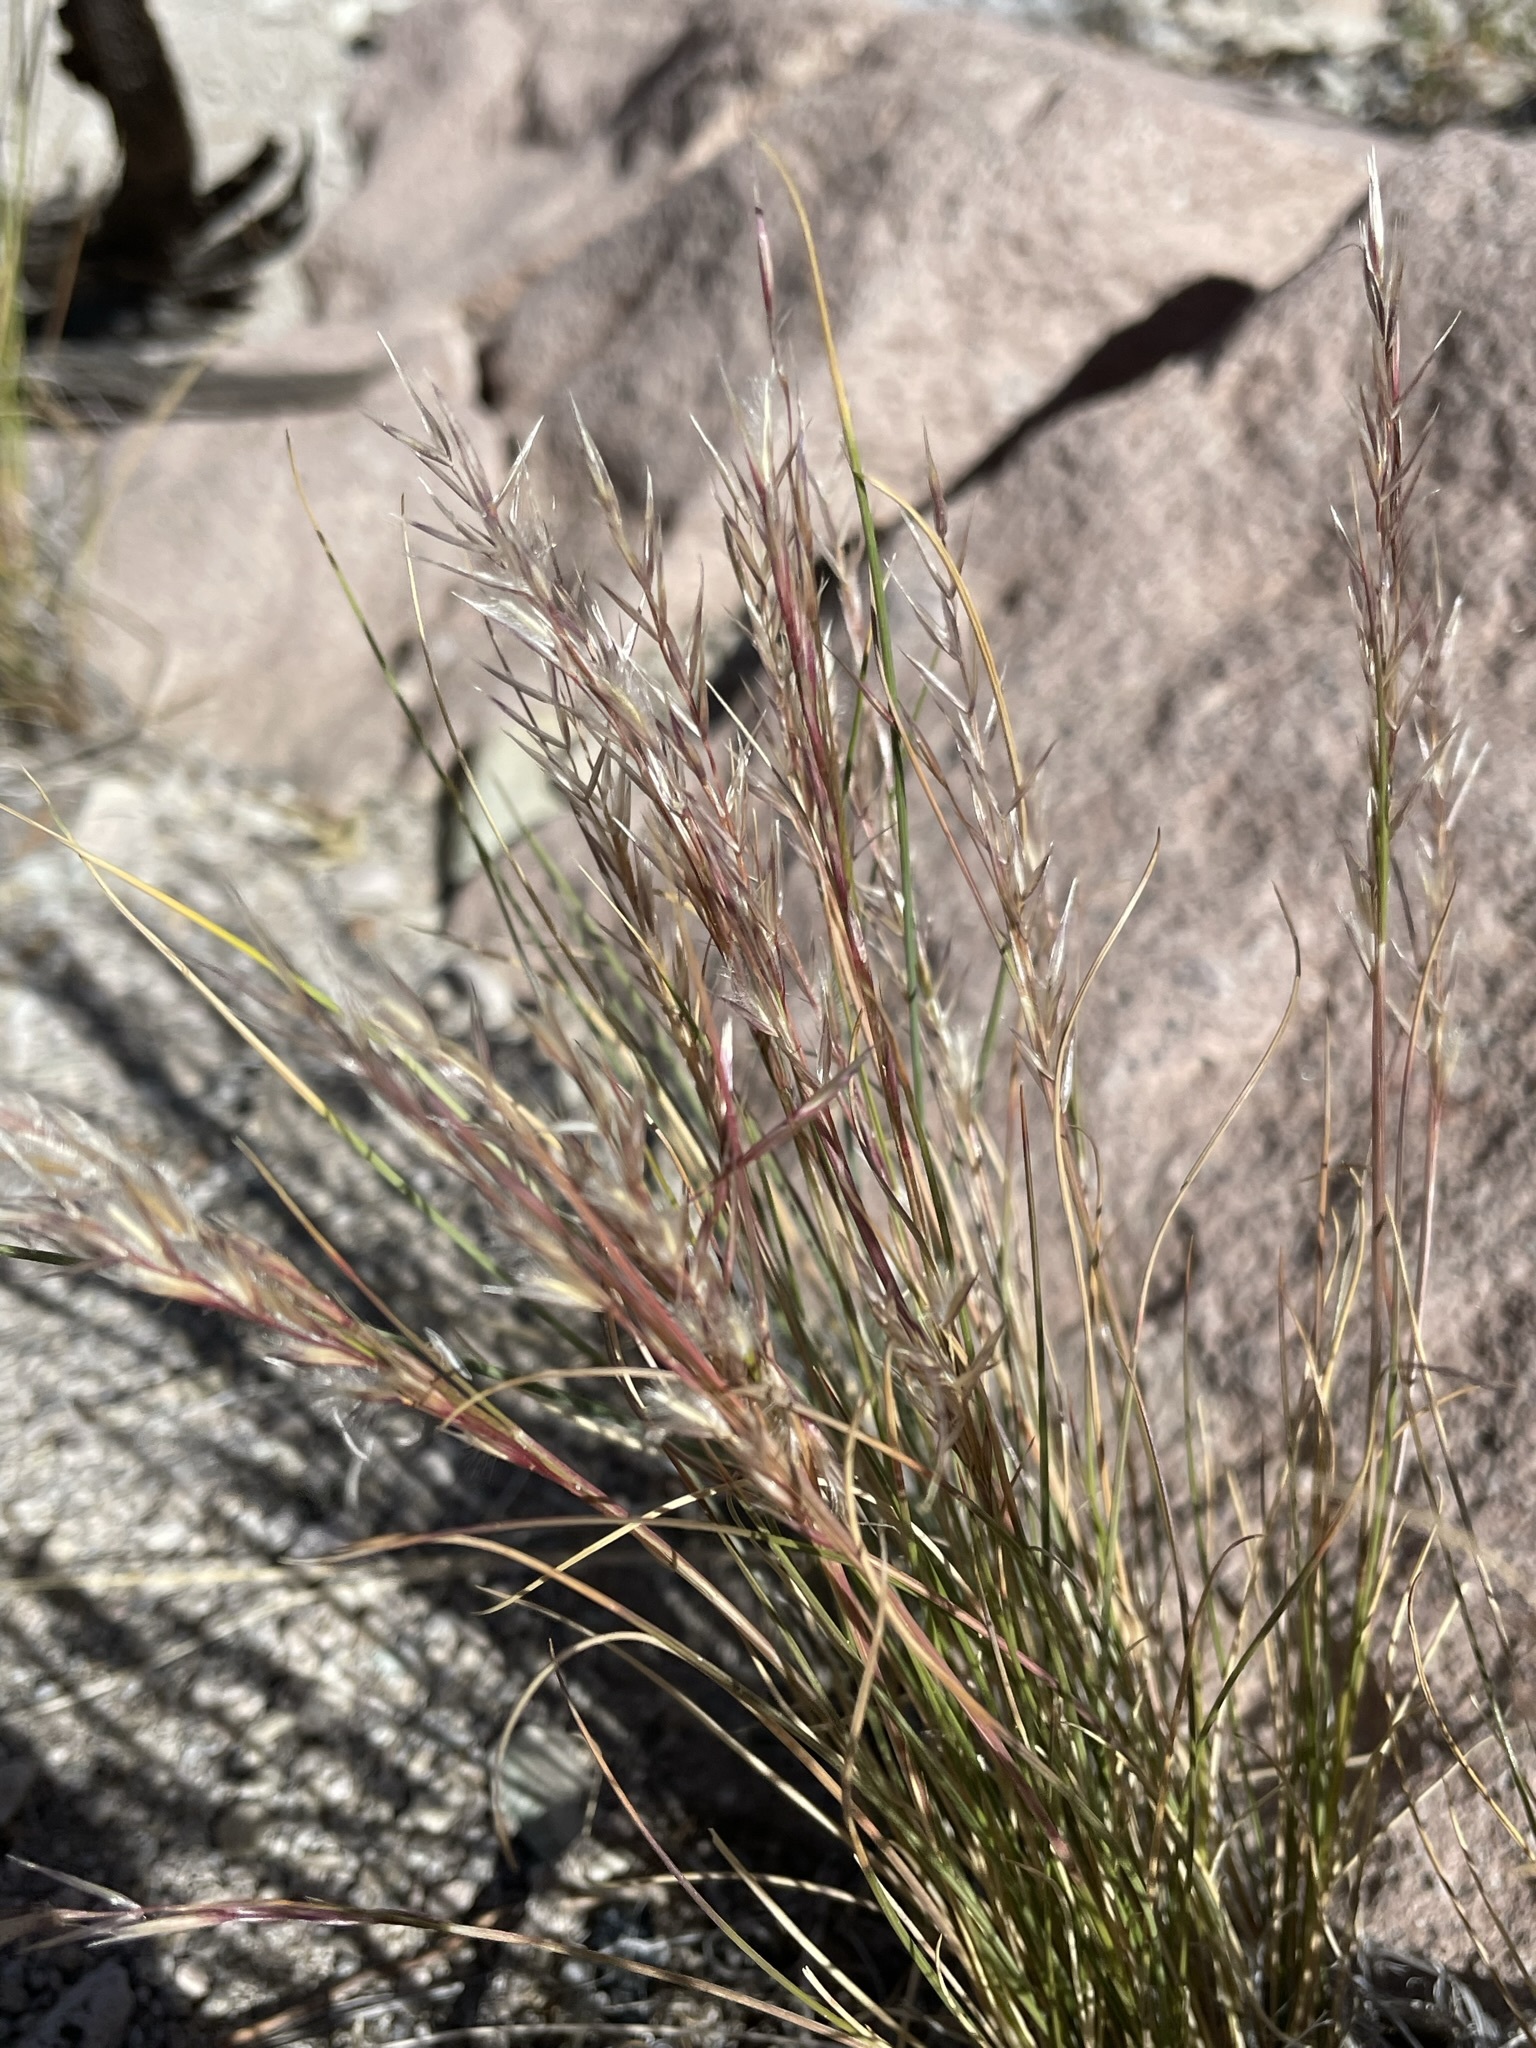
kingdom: Plantae
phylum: Tracheophyta
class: Liliopsida
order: Poales
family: Poaceae
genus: Eriocoma
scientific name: Eriocoma webberi
